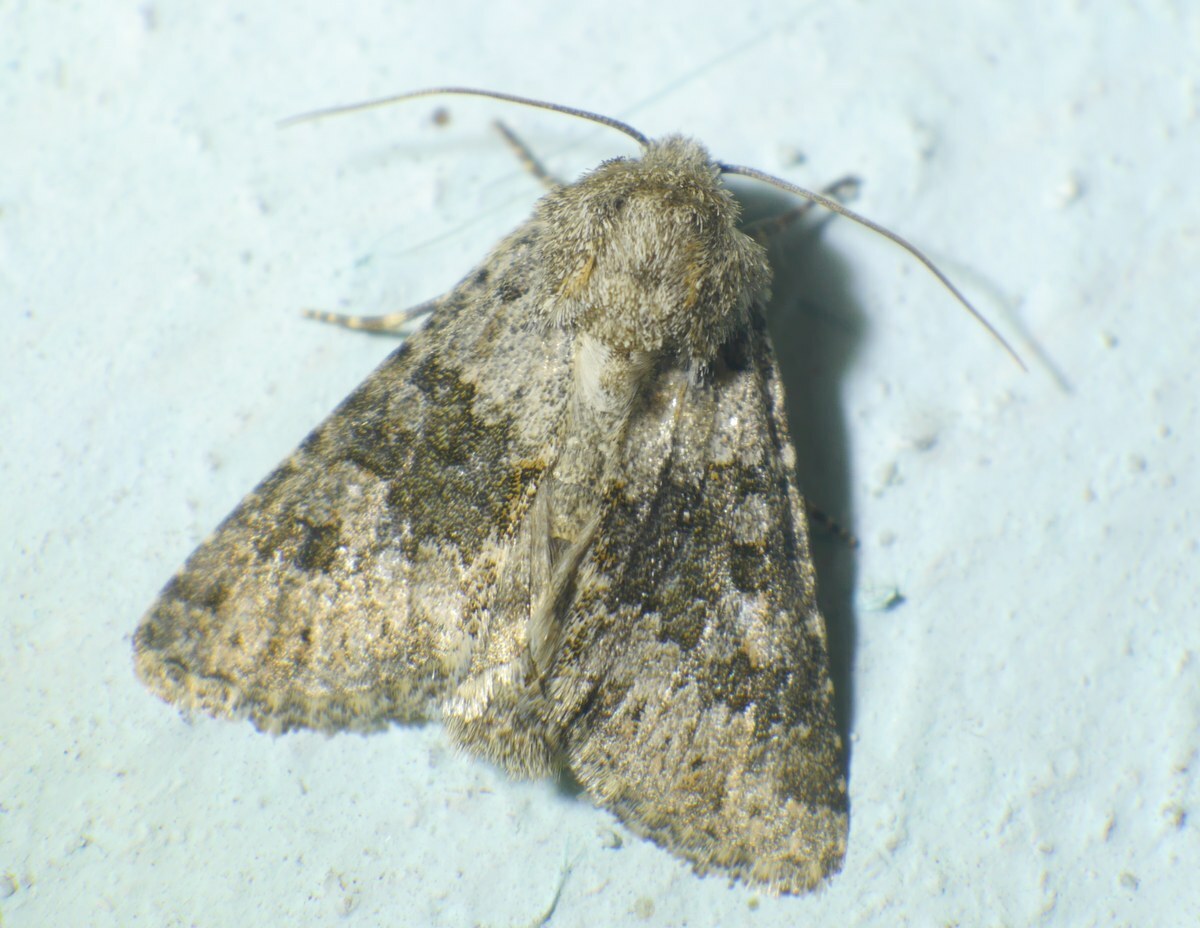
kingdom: Animalia
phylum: Arthropoda
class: Insecta
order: Lepidoptera
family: Noctuidae
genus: Hecatera
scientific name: Hecatera dysodea
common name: Small ranunculus
